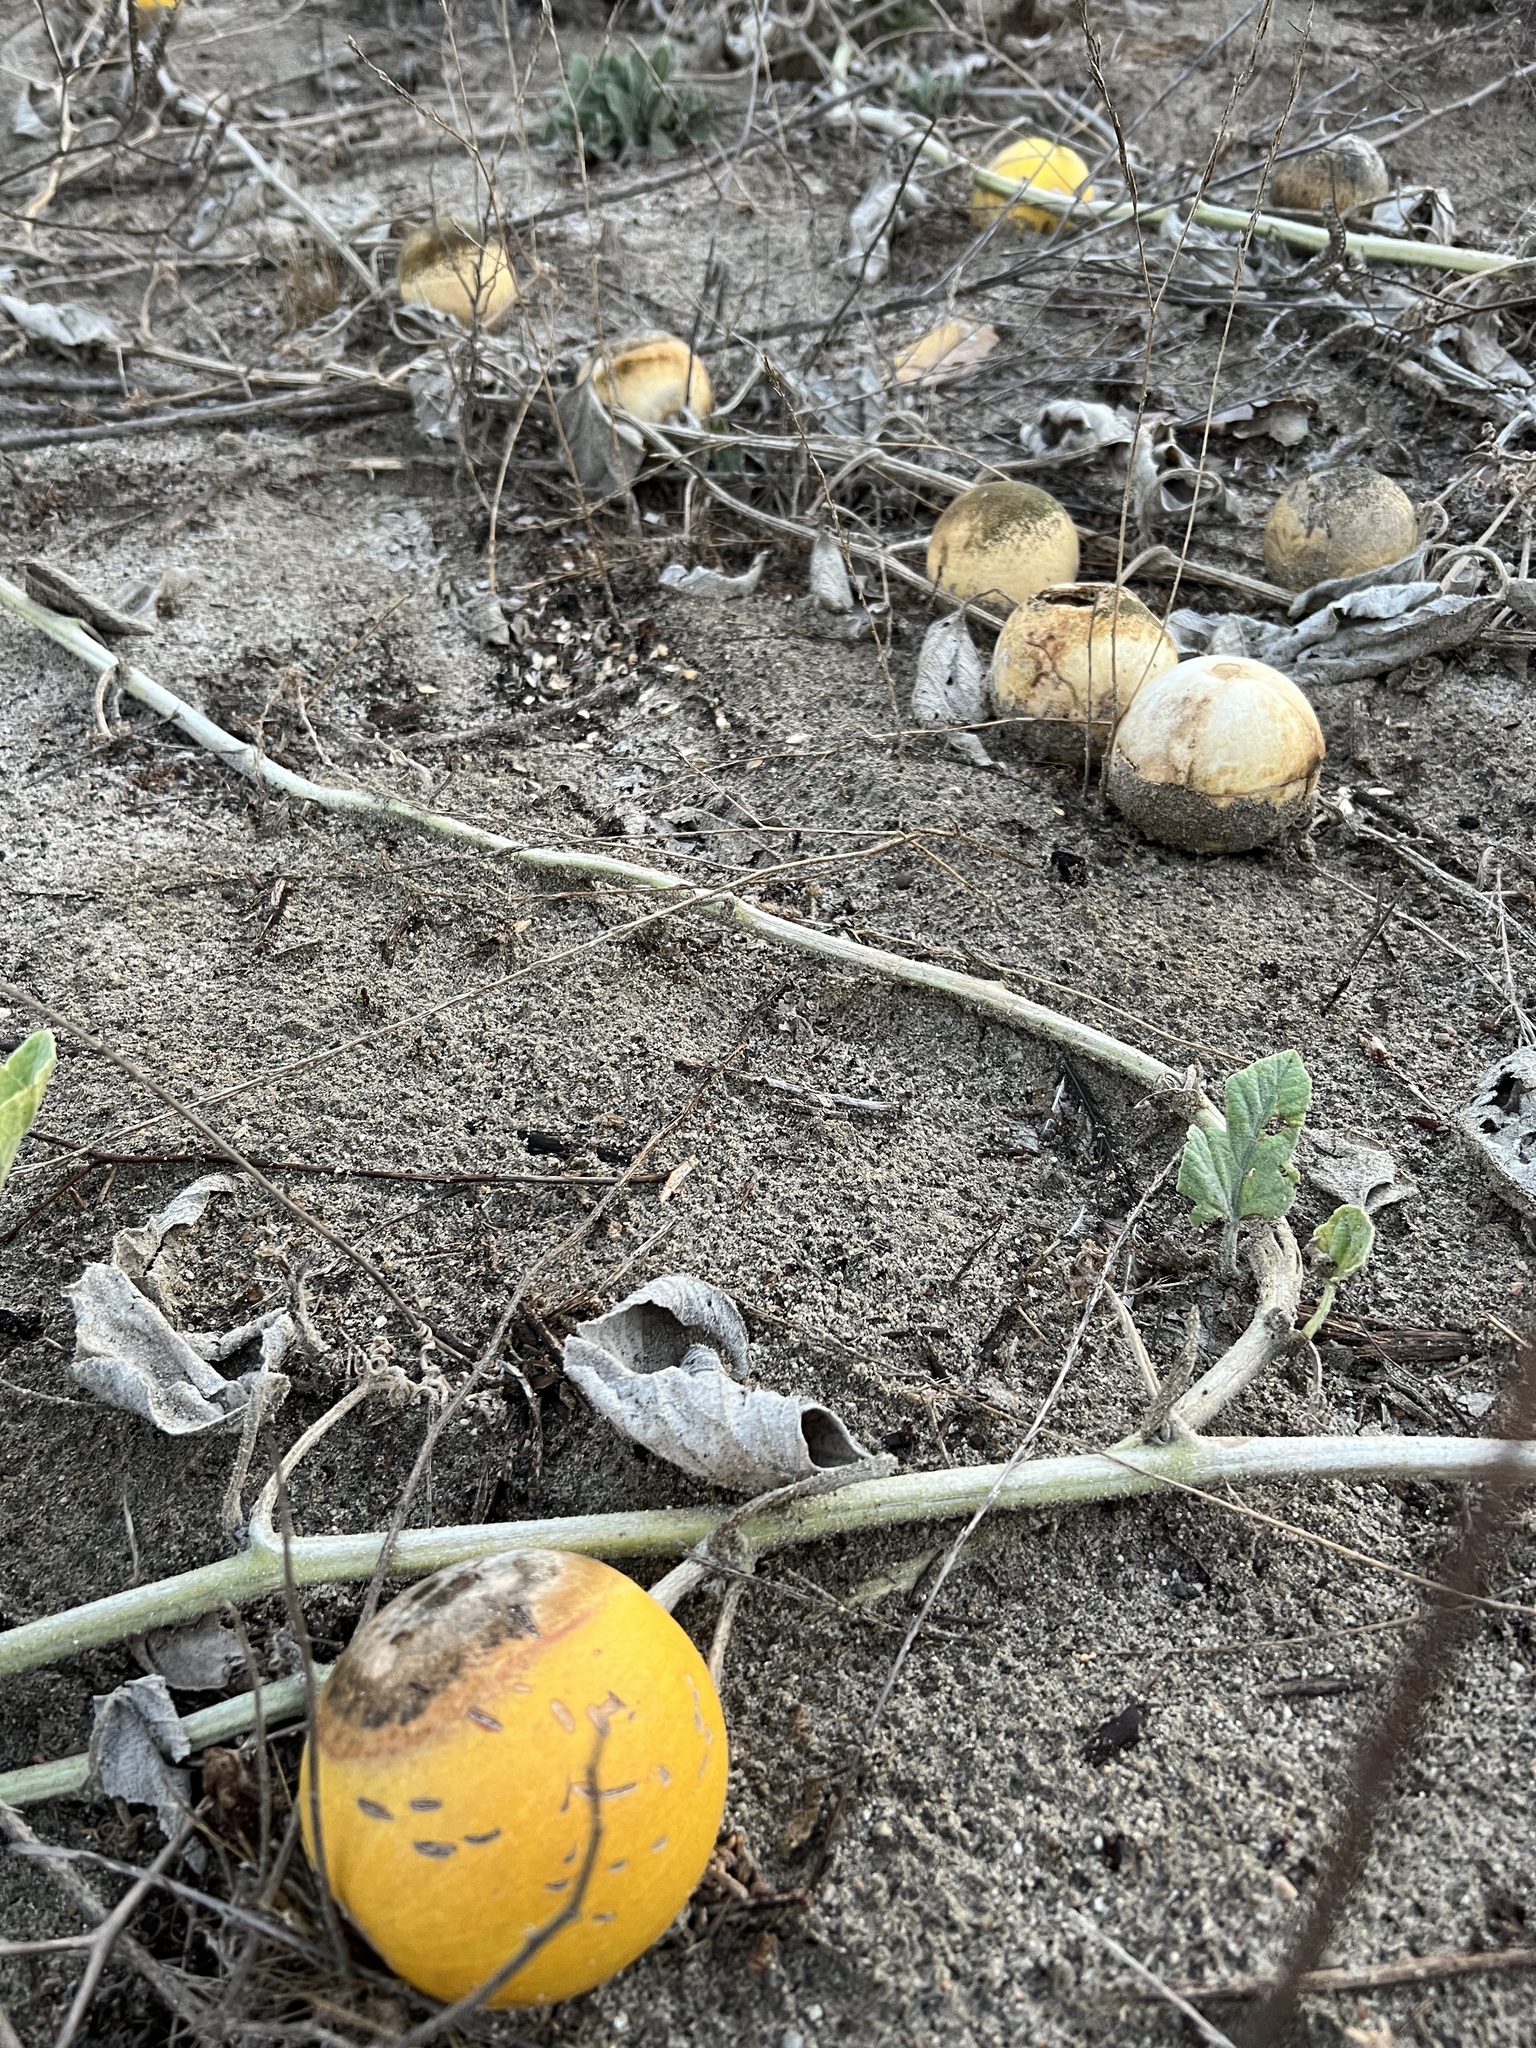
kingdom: Plantae
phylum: Tracheophyta
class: Magnoliopsida
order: Cucurbitales
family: Cucurbitaceae
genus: Cucurbita
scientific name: Cucurbita foetidissima
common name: Buffalo gourd
